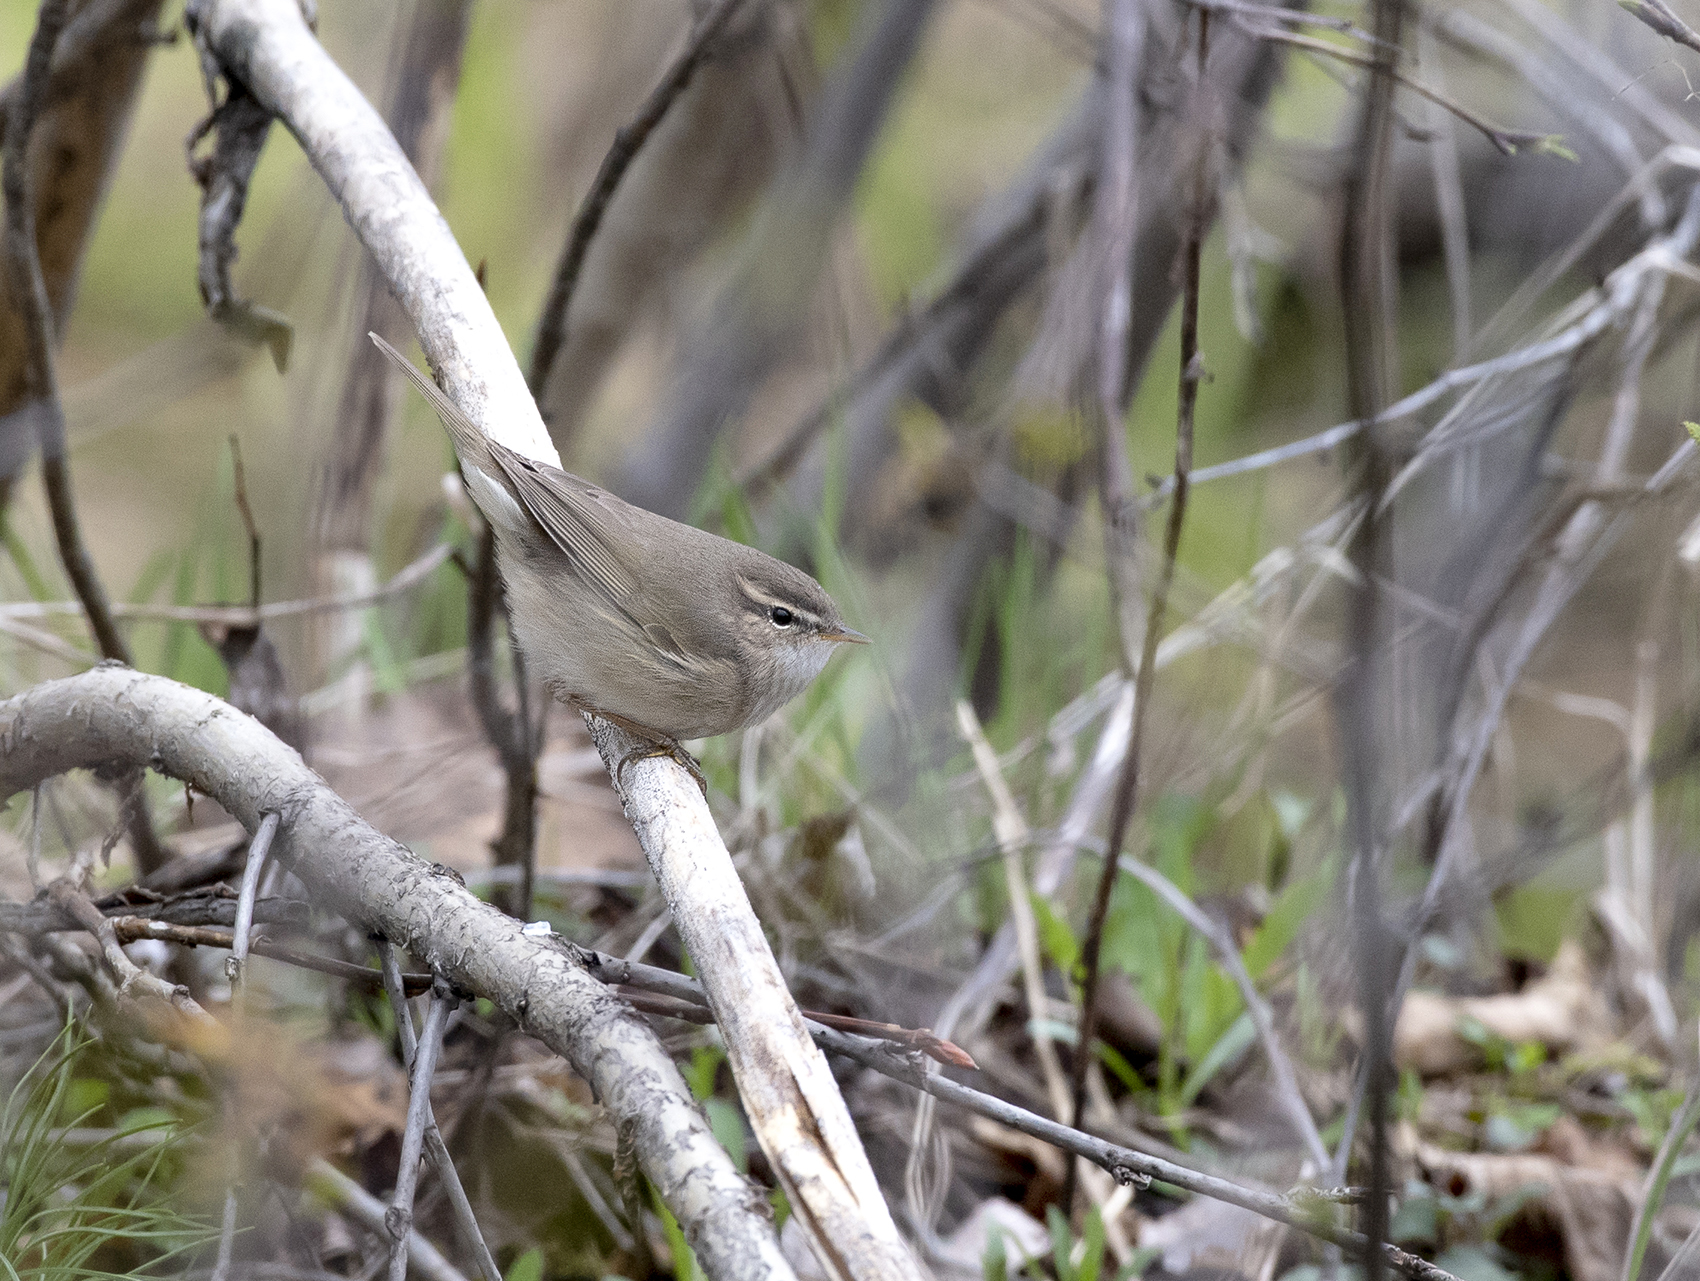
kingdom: Animalia
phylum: Chordata
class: Aves
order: Passeriformes
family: Phylloscopidae
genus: Phylloscopus
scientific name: Phylloscopus fuscatus
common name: Dusky warbler
